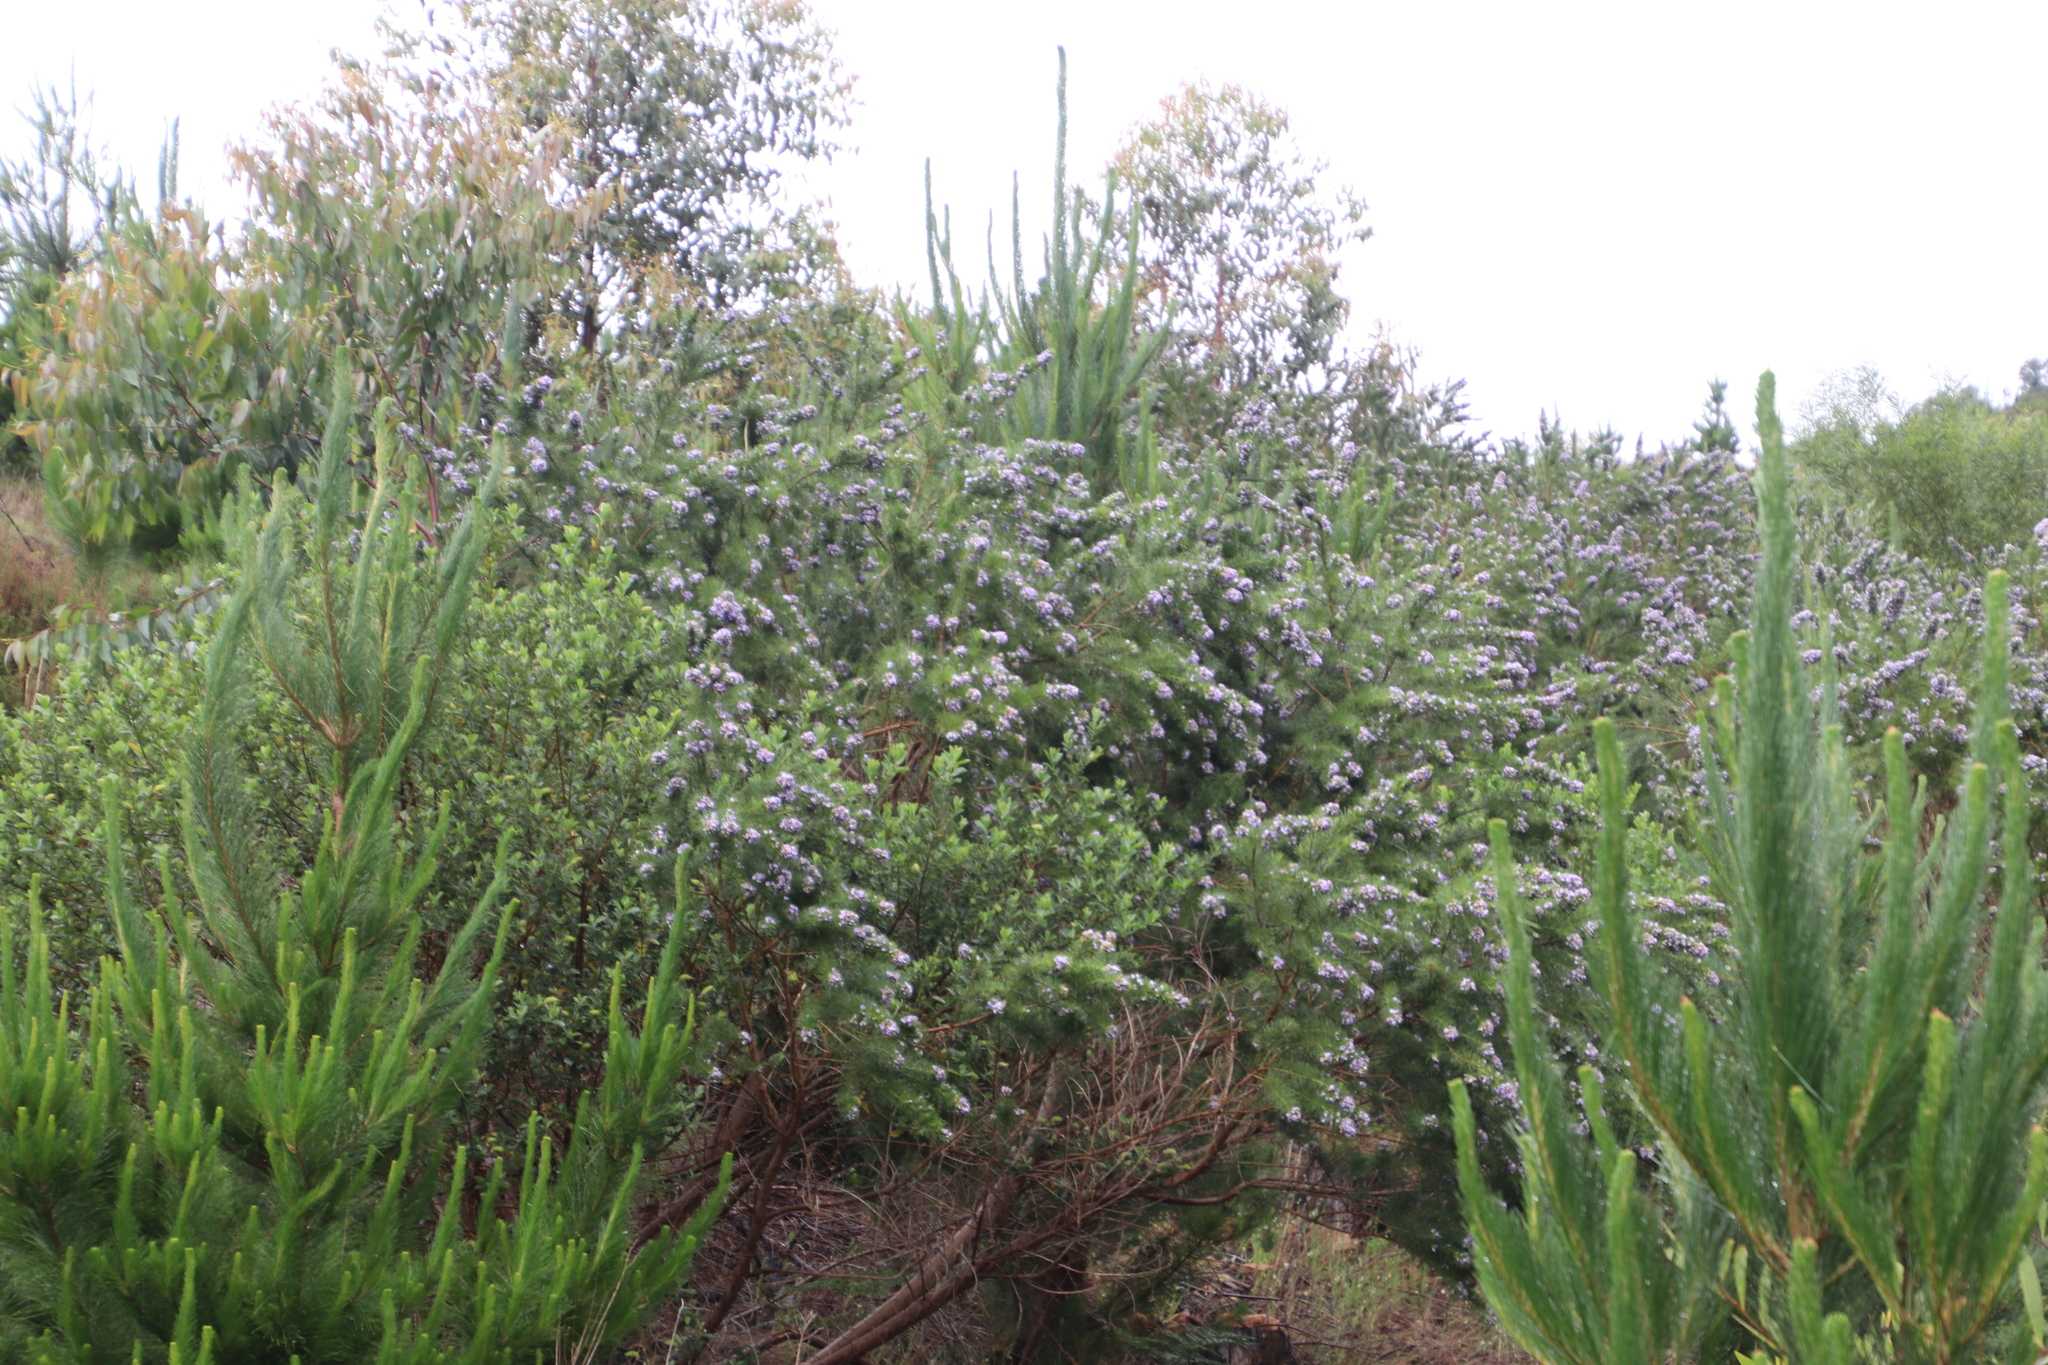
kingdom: Plantae
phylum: Tracheophyta
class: Magnoliopsida
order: Fabales
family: Fabaceae
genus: Psoralea
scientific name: Psoralea pinnata
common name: African scurfpea
